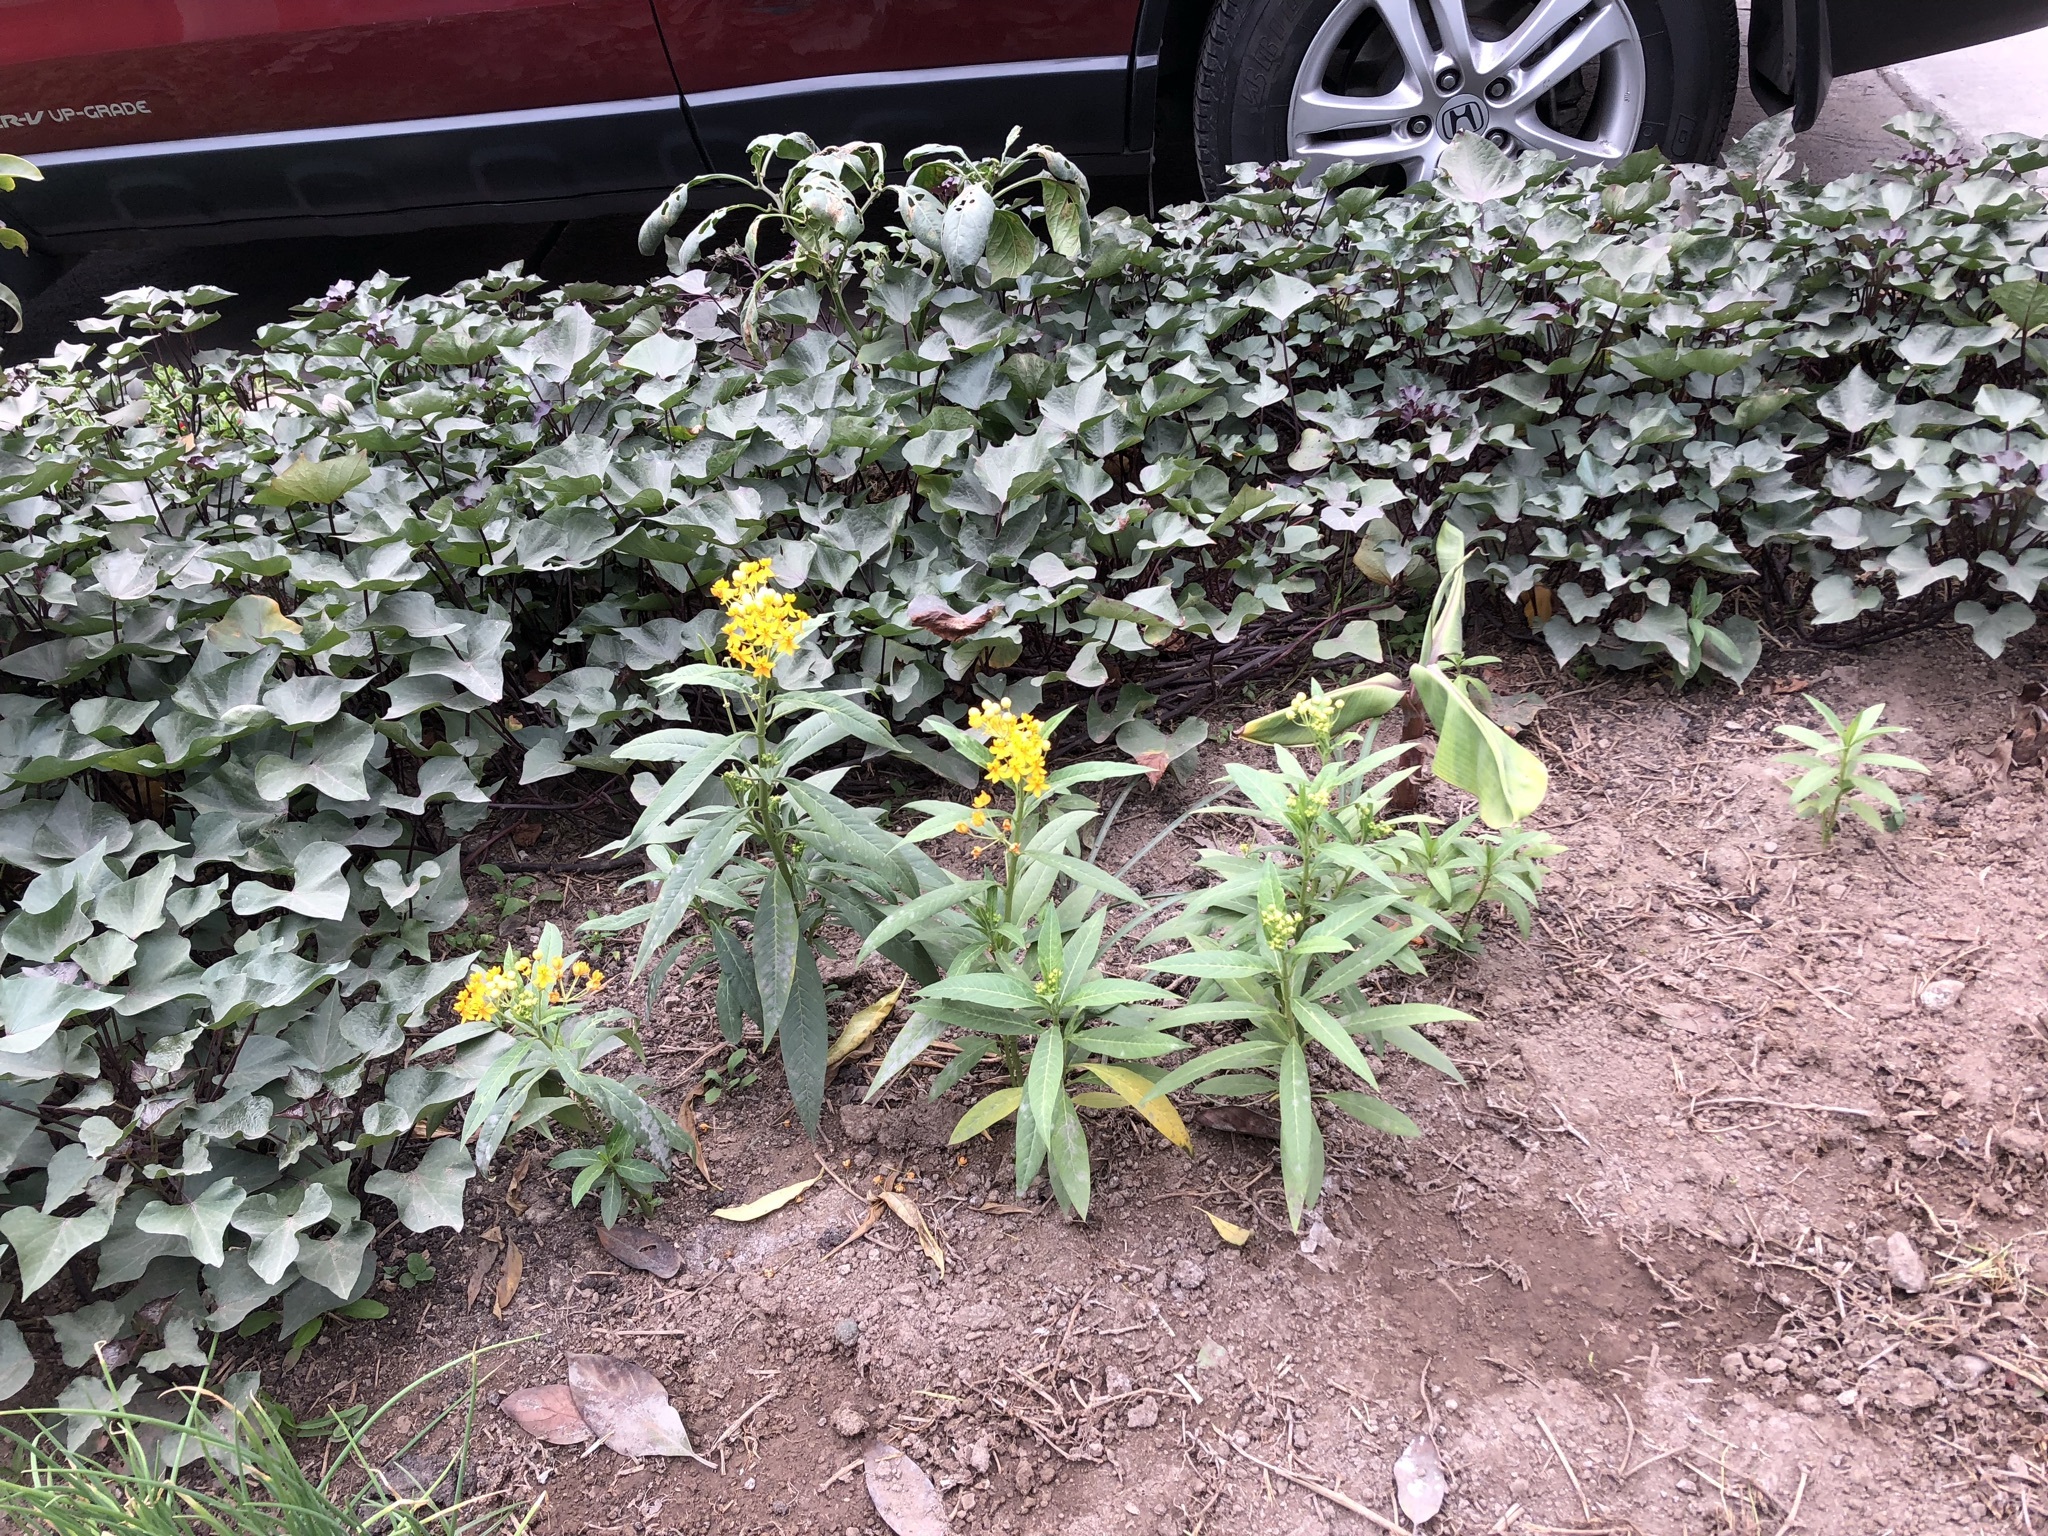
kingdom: Plantae
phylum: Tracheophyta
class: Magnoliopsida
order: Gentianales
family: Apocynaceae
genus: Asclepias
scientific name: Asclepias curassavica
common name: Bloodflower
